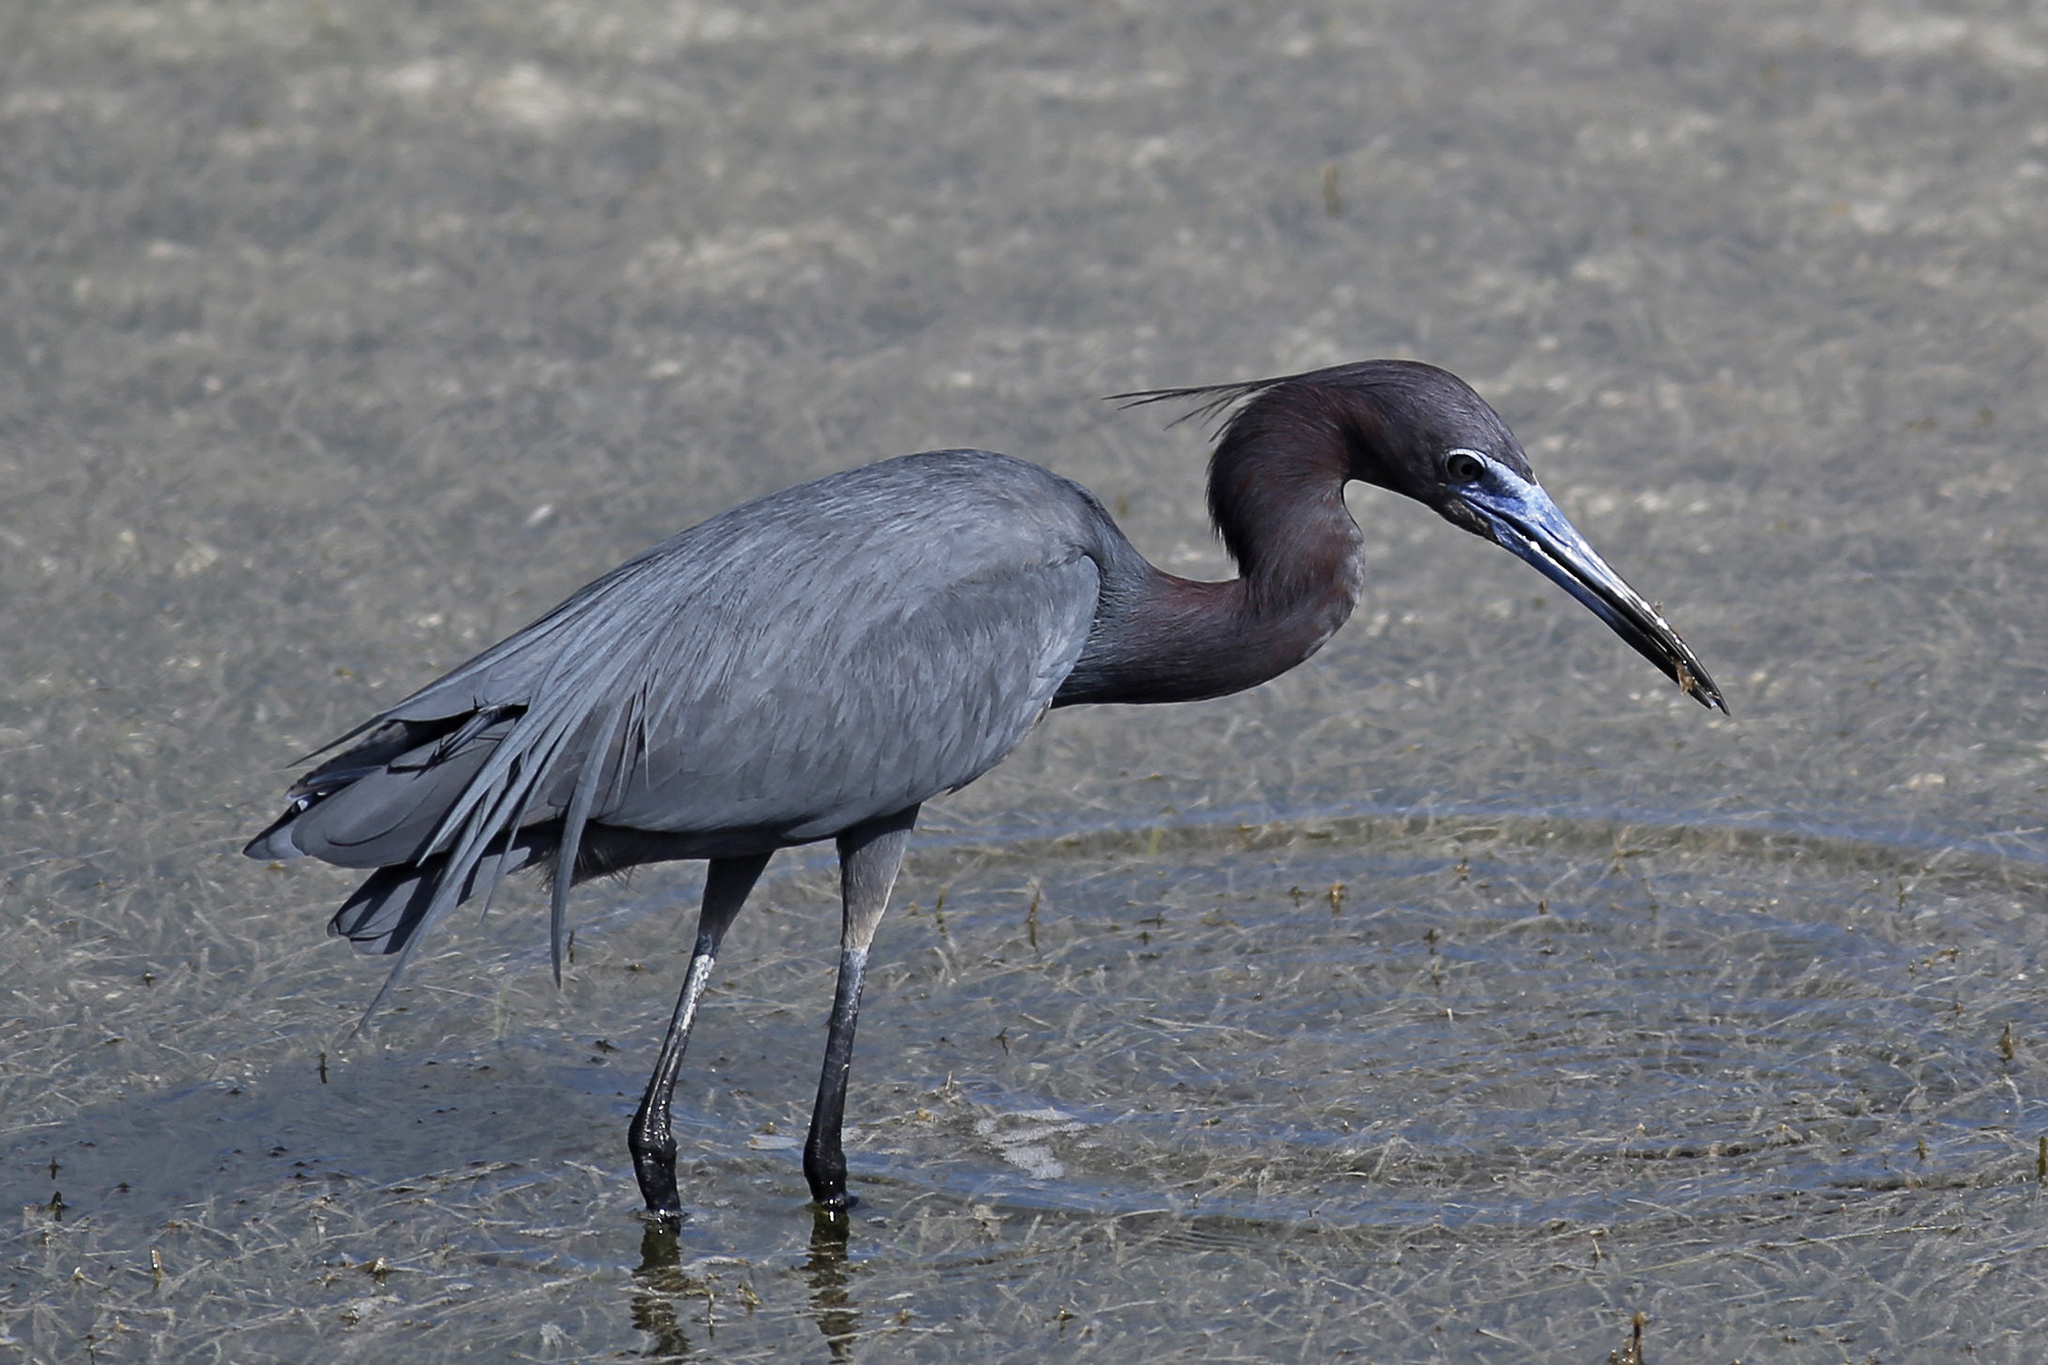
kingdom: Animalia
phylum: Chordata
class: Aves
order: Pelecaniformes
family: Ardeidae
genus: Egretta
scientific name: Egretta caerulea
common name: Little blue heron
